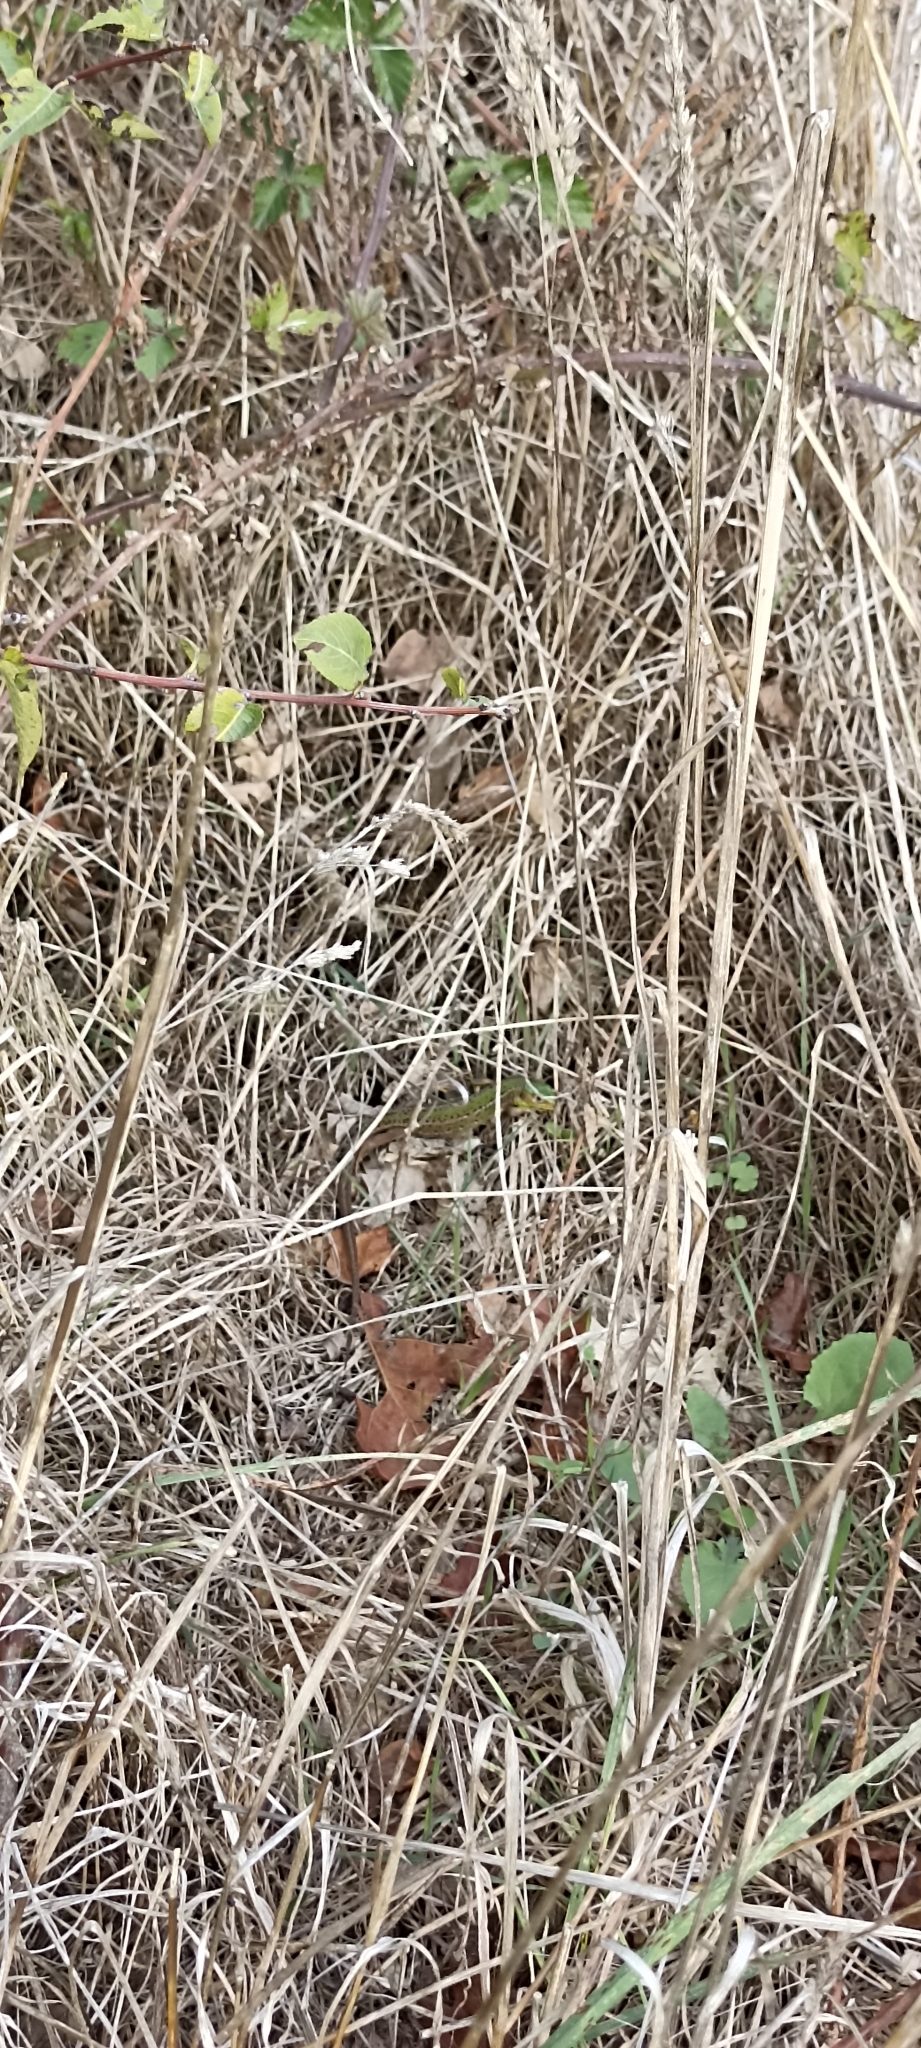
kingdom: Animalia
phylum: Chordata
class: Squamata
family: Lacertidae
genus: Lacerta
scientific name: Lacerta bilineata
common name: Western green lizard
